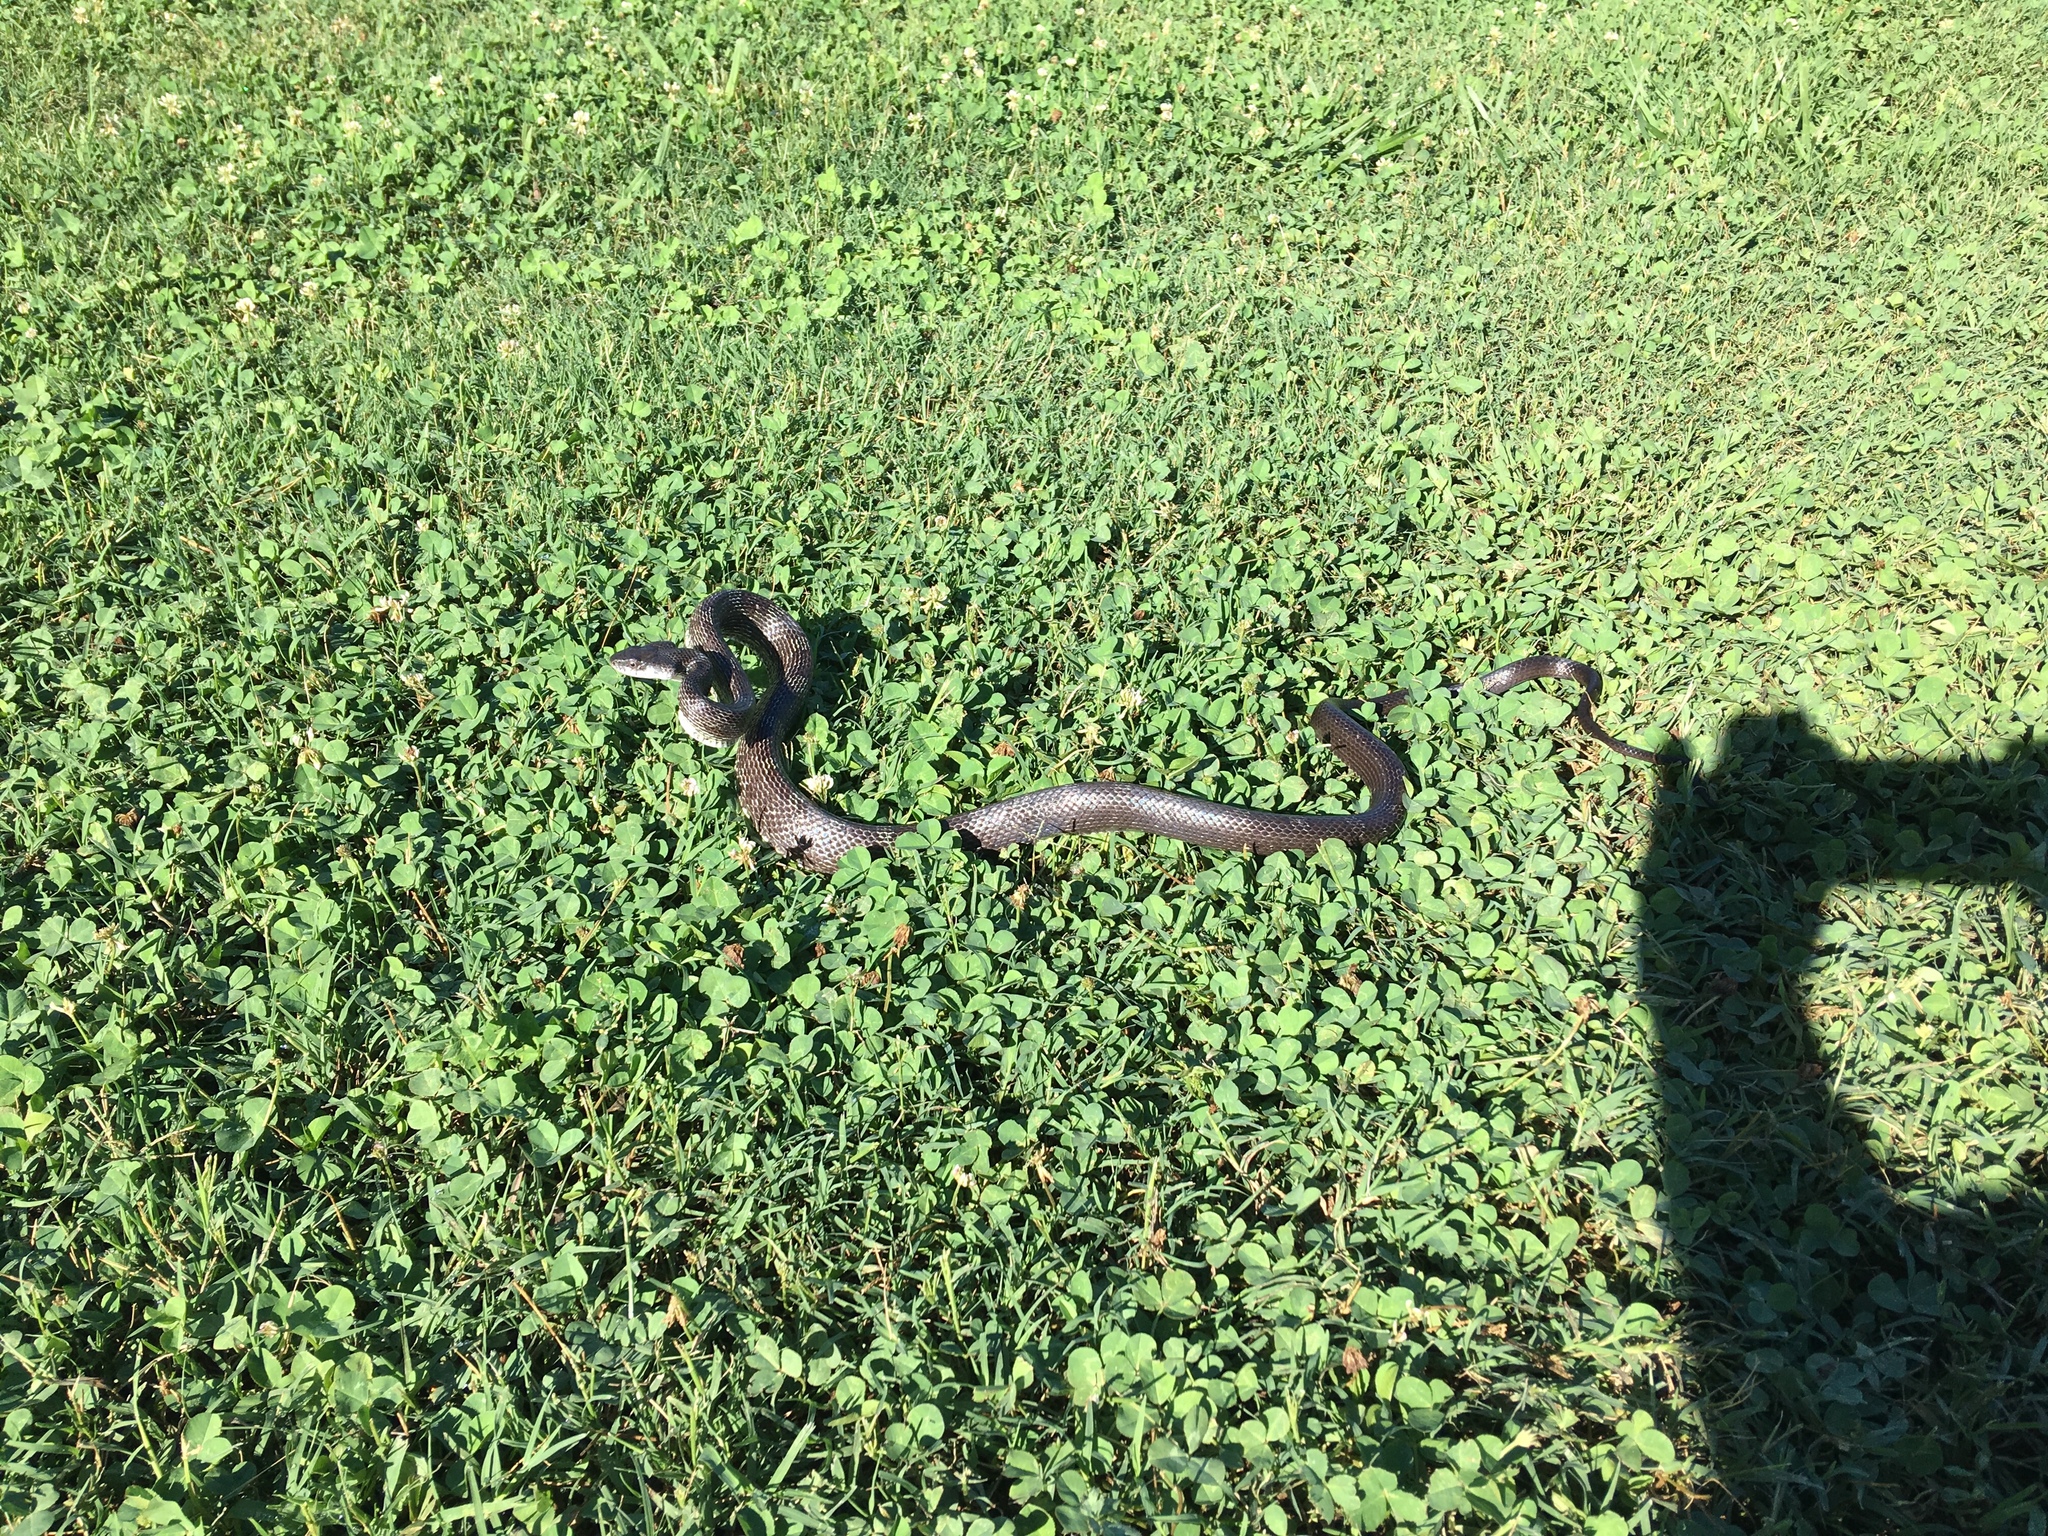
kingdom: Animalia
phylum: Chordata
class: Squamata
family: Colubridae
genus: Pantherophis
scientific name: Pantherophis alleghaniensis
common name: Eastern rat snake
